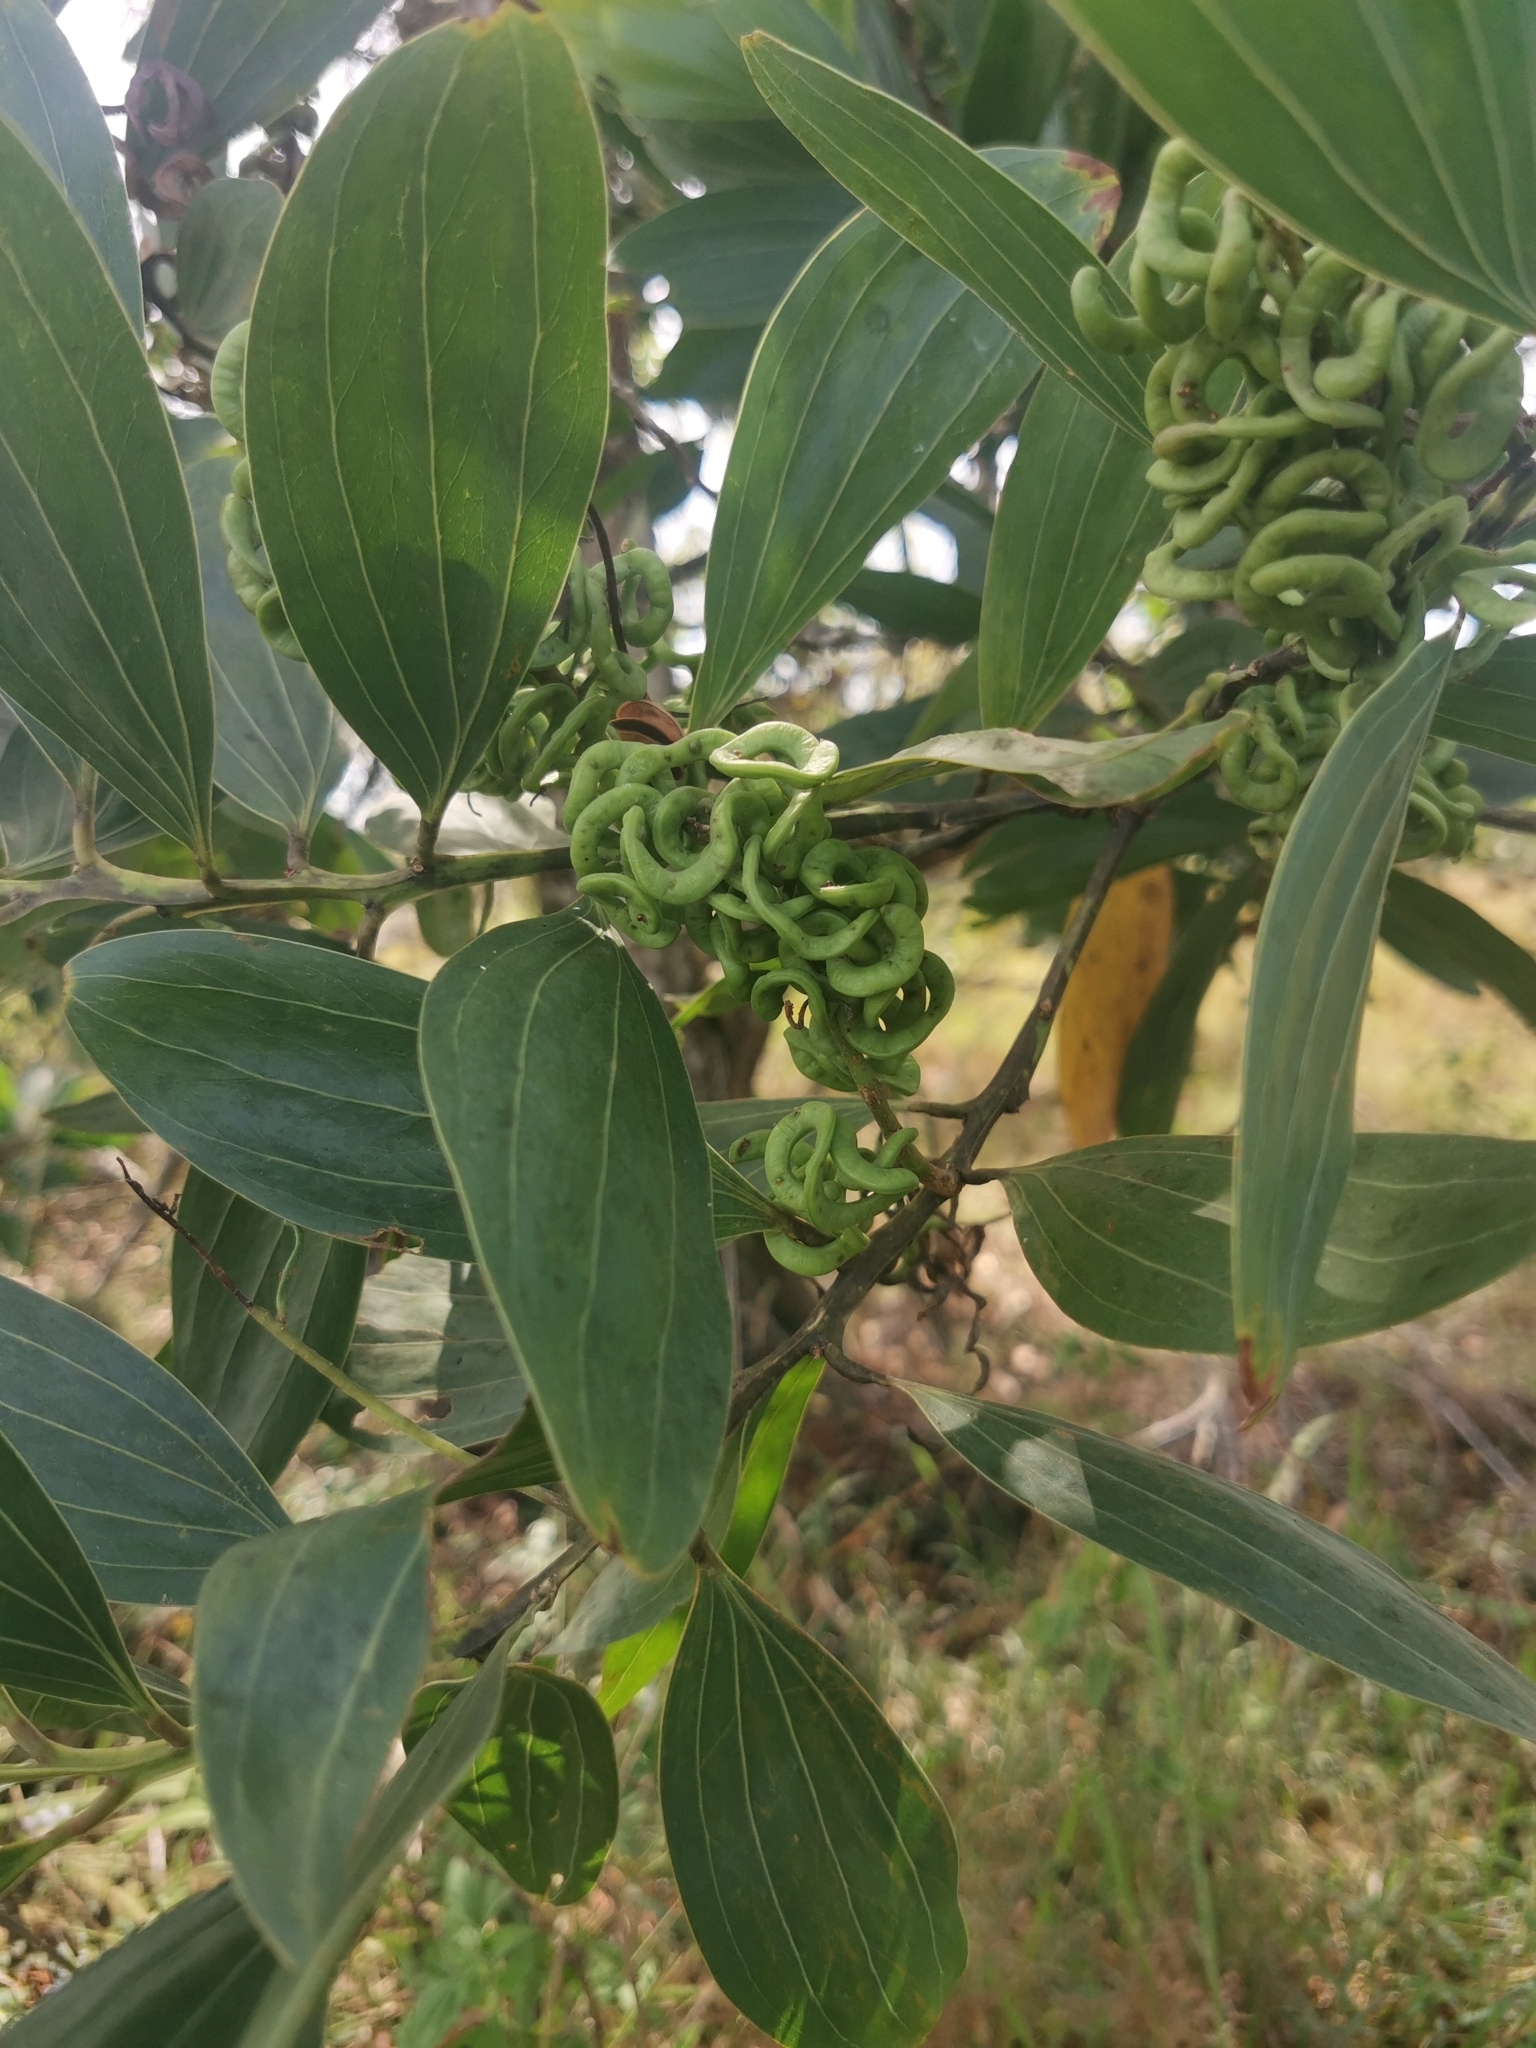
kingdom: Plantae
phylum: Tracheophyta
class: Magnoliopsida
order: Fabales
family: Fabaceae
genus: Acacia
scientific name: Acacia mangium
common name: Black wattle
